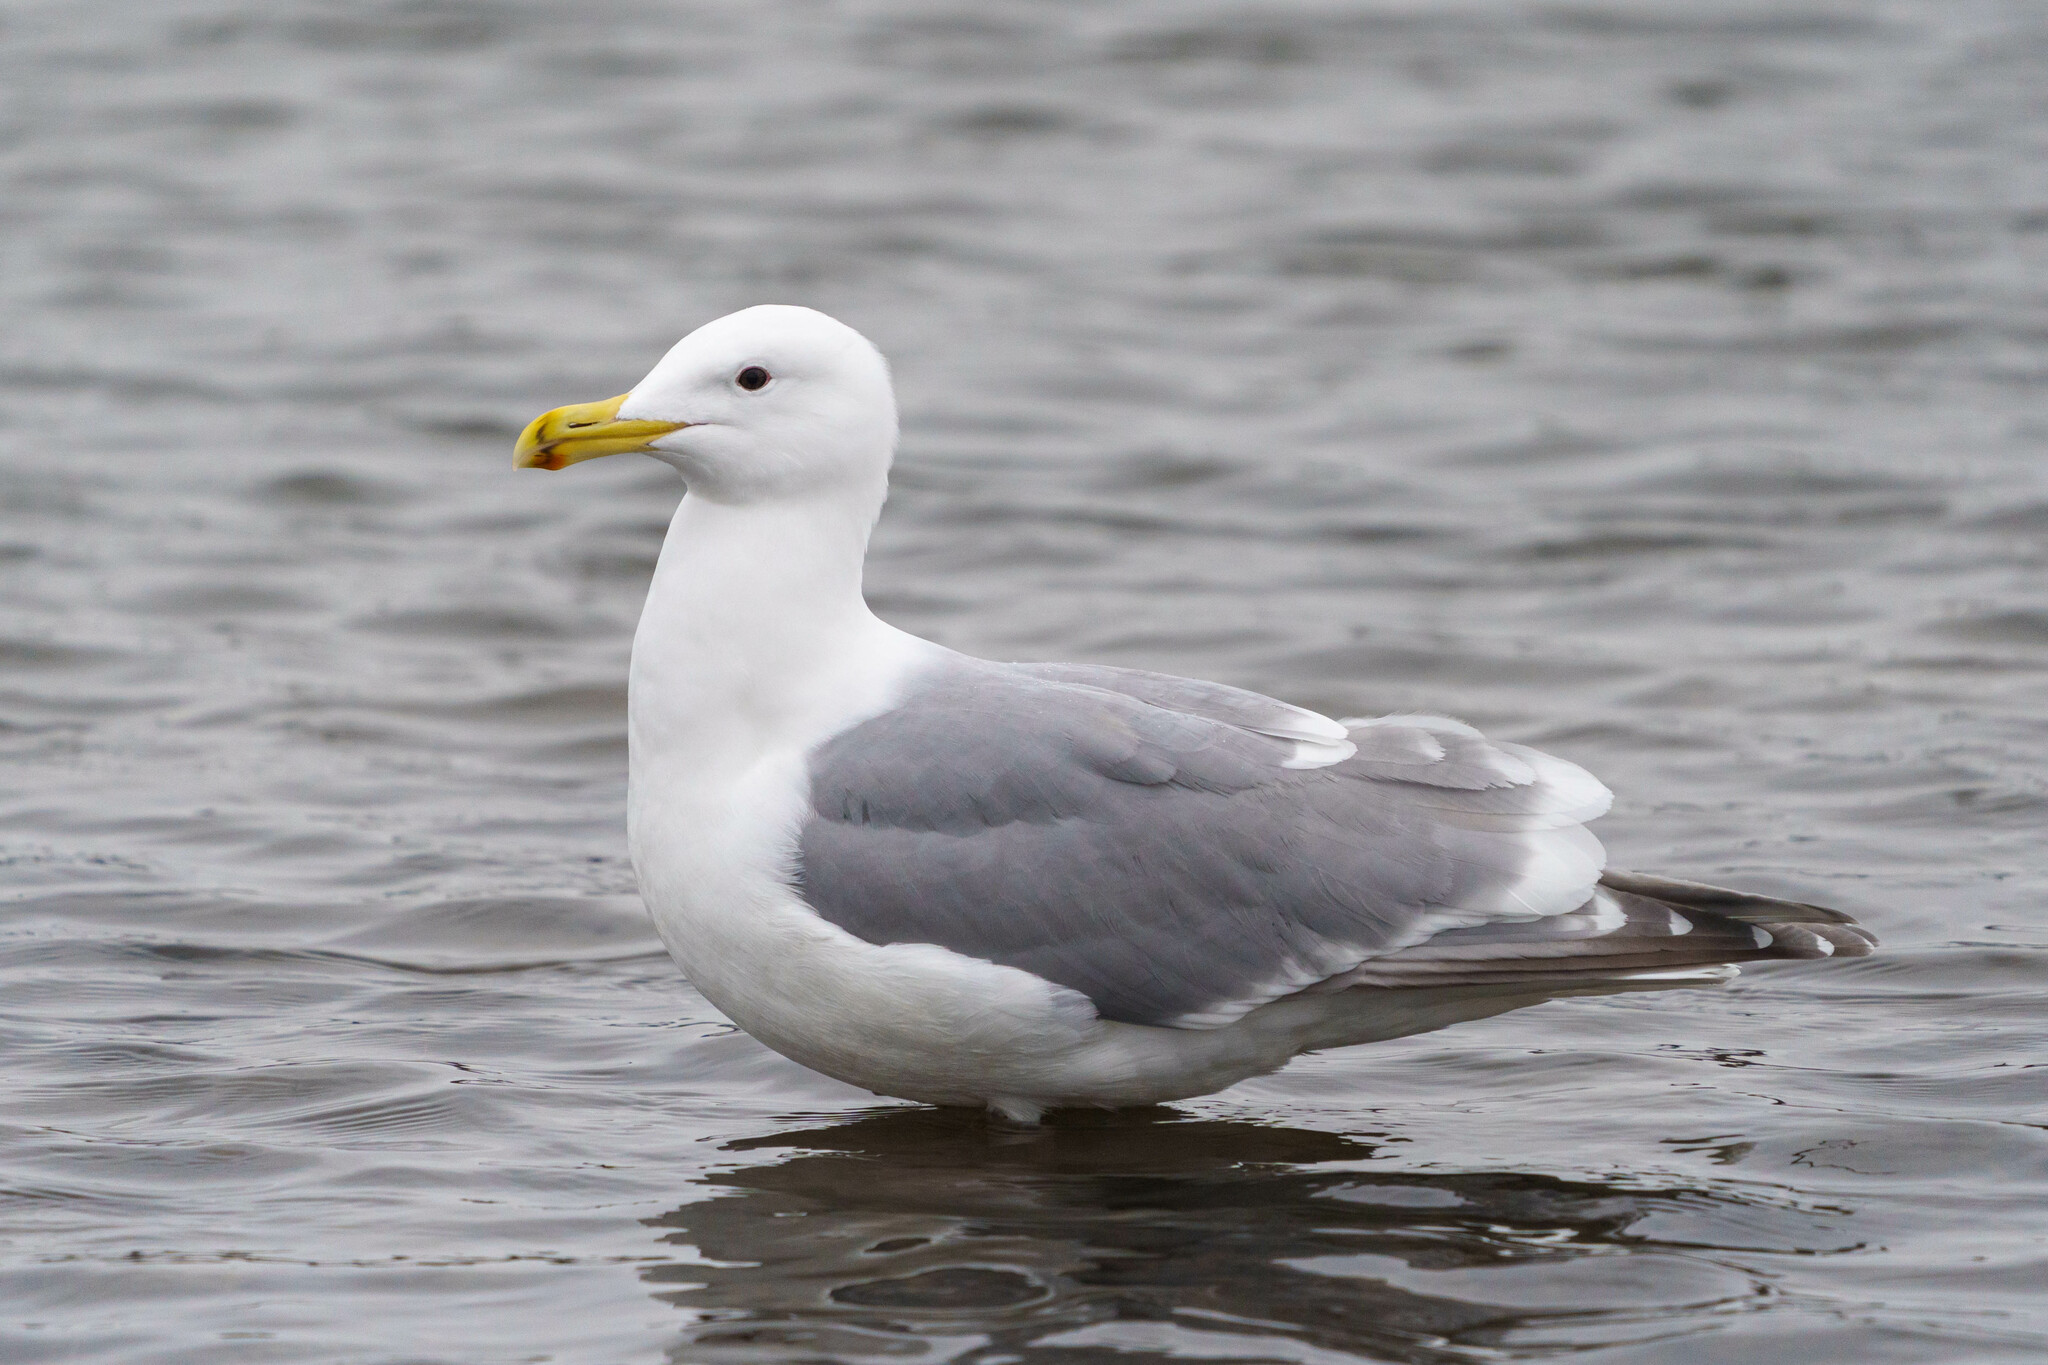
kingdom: Animalia
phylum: Chordata
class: Aves
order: Charadriiformes
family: Laridae
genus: Larus
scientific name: Larus
